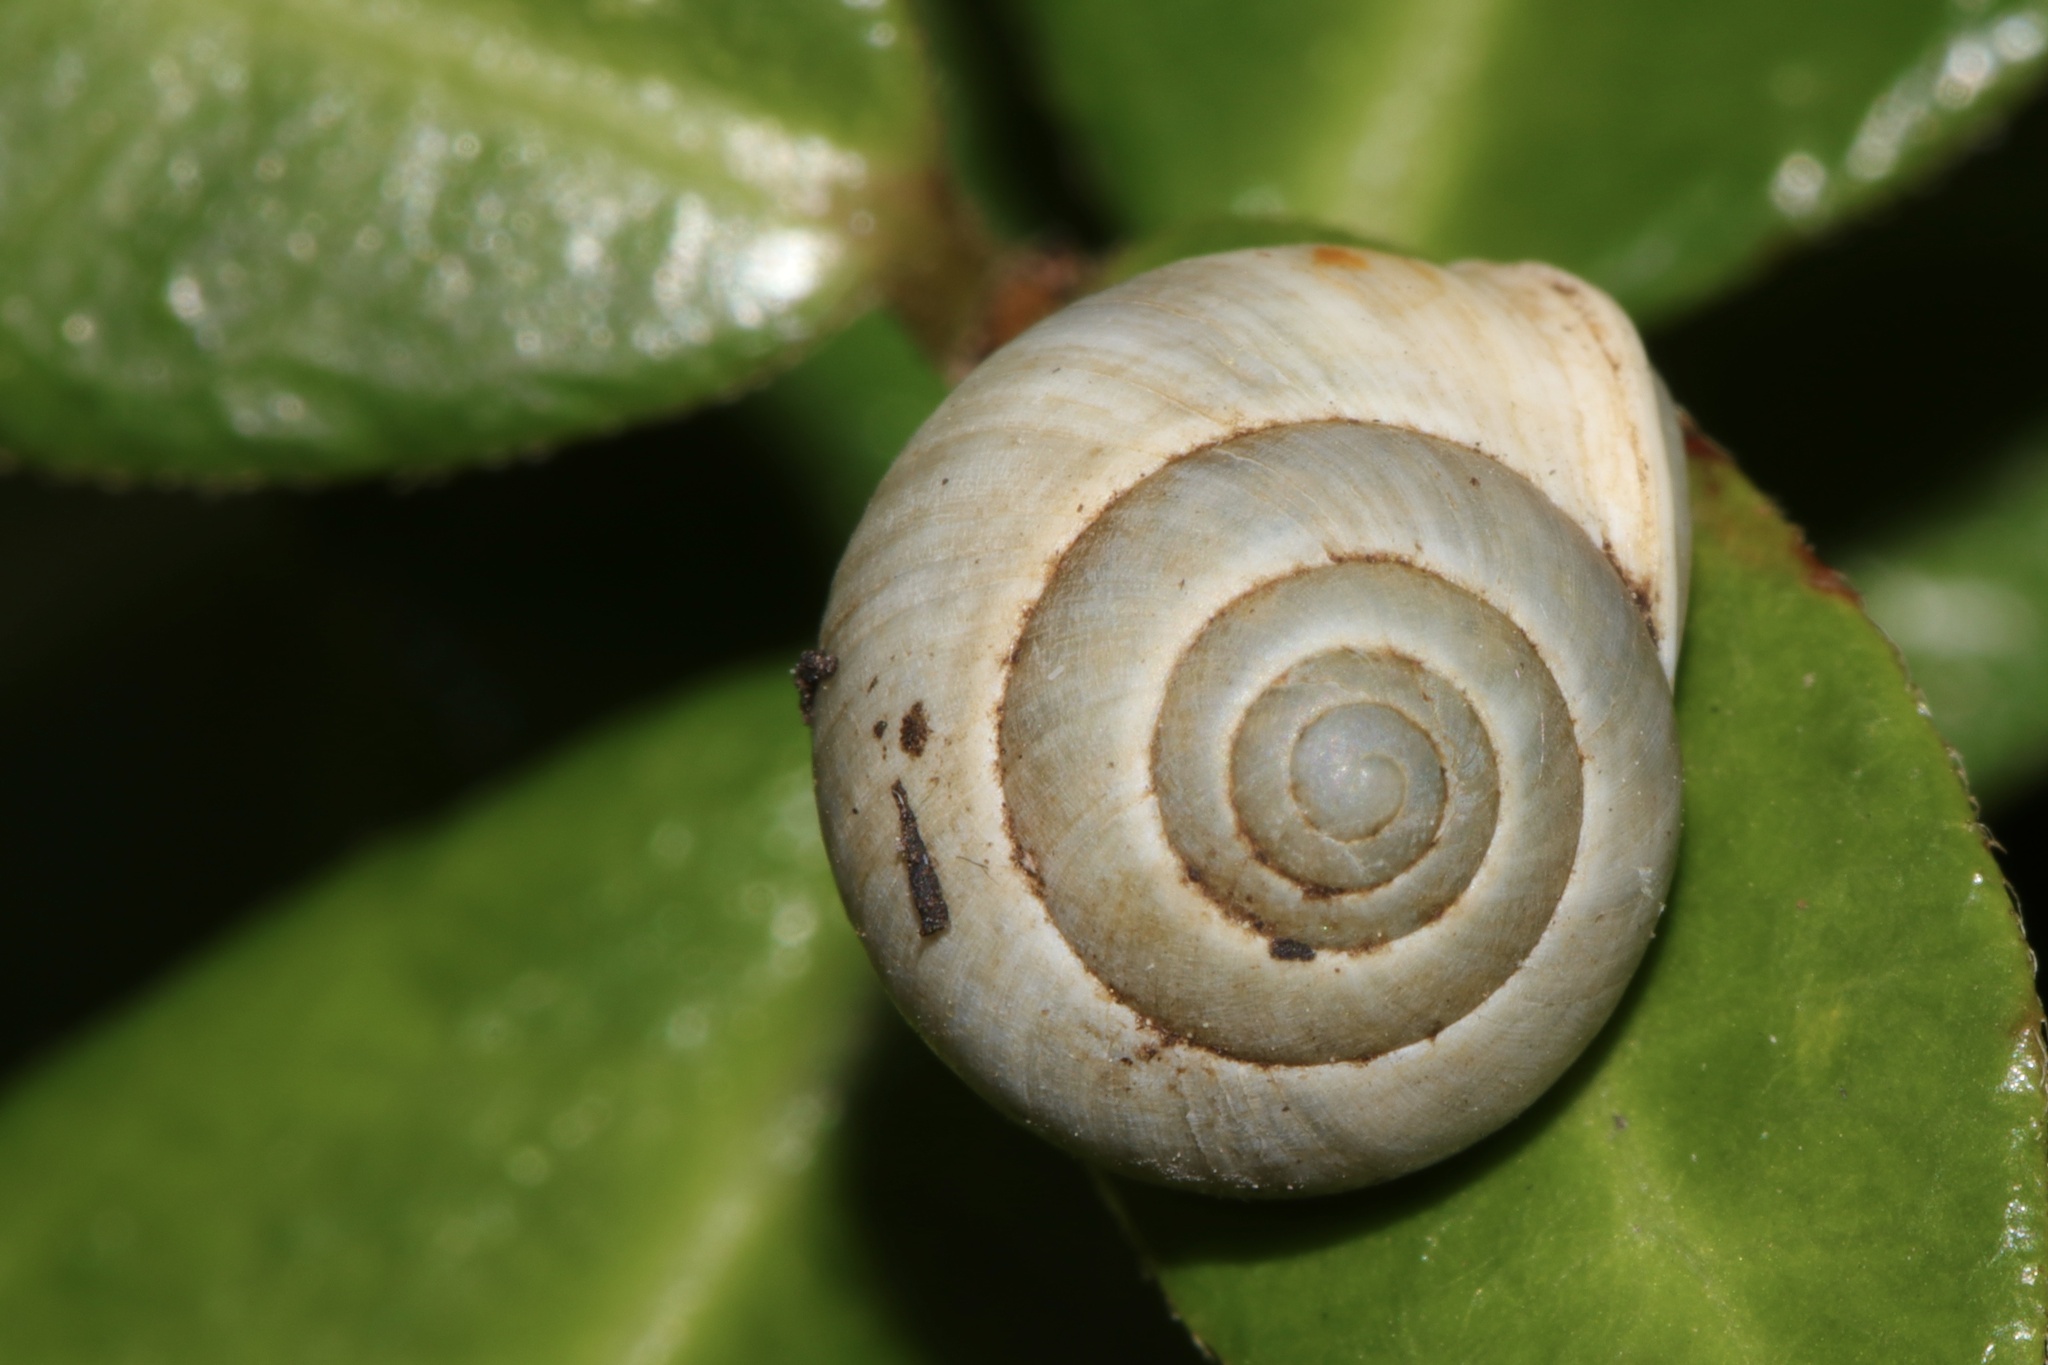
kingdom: Animalia
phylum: Mollusca
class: Gastropoda
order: Cycloneritida
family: Helicinidae
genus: Helicina
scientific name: Helicina orbiculata
